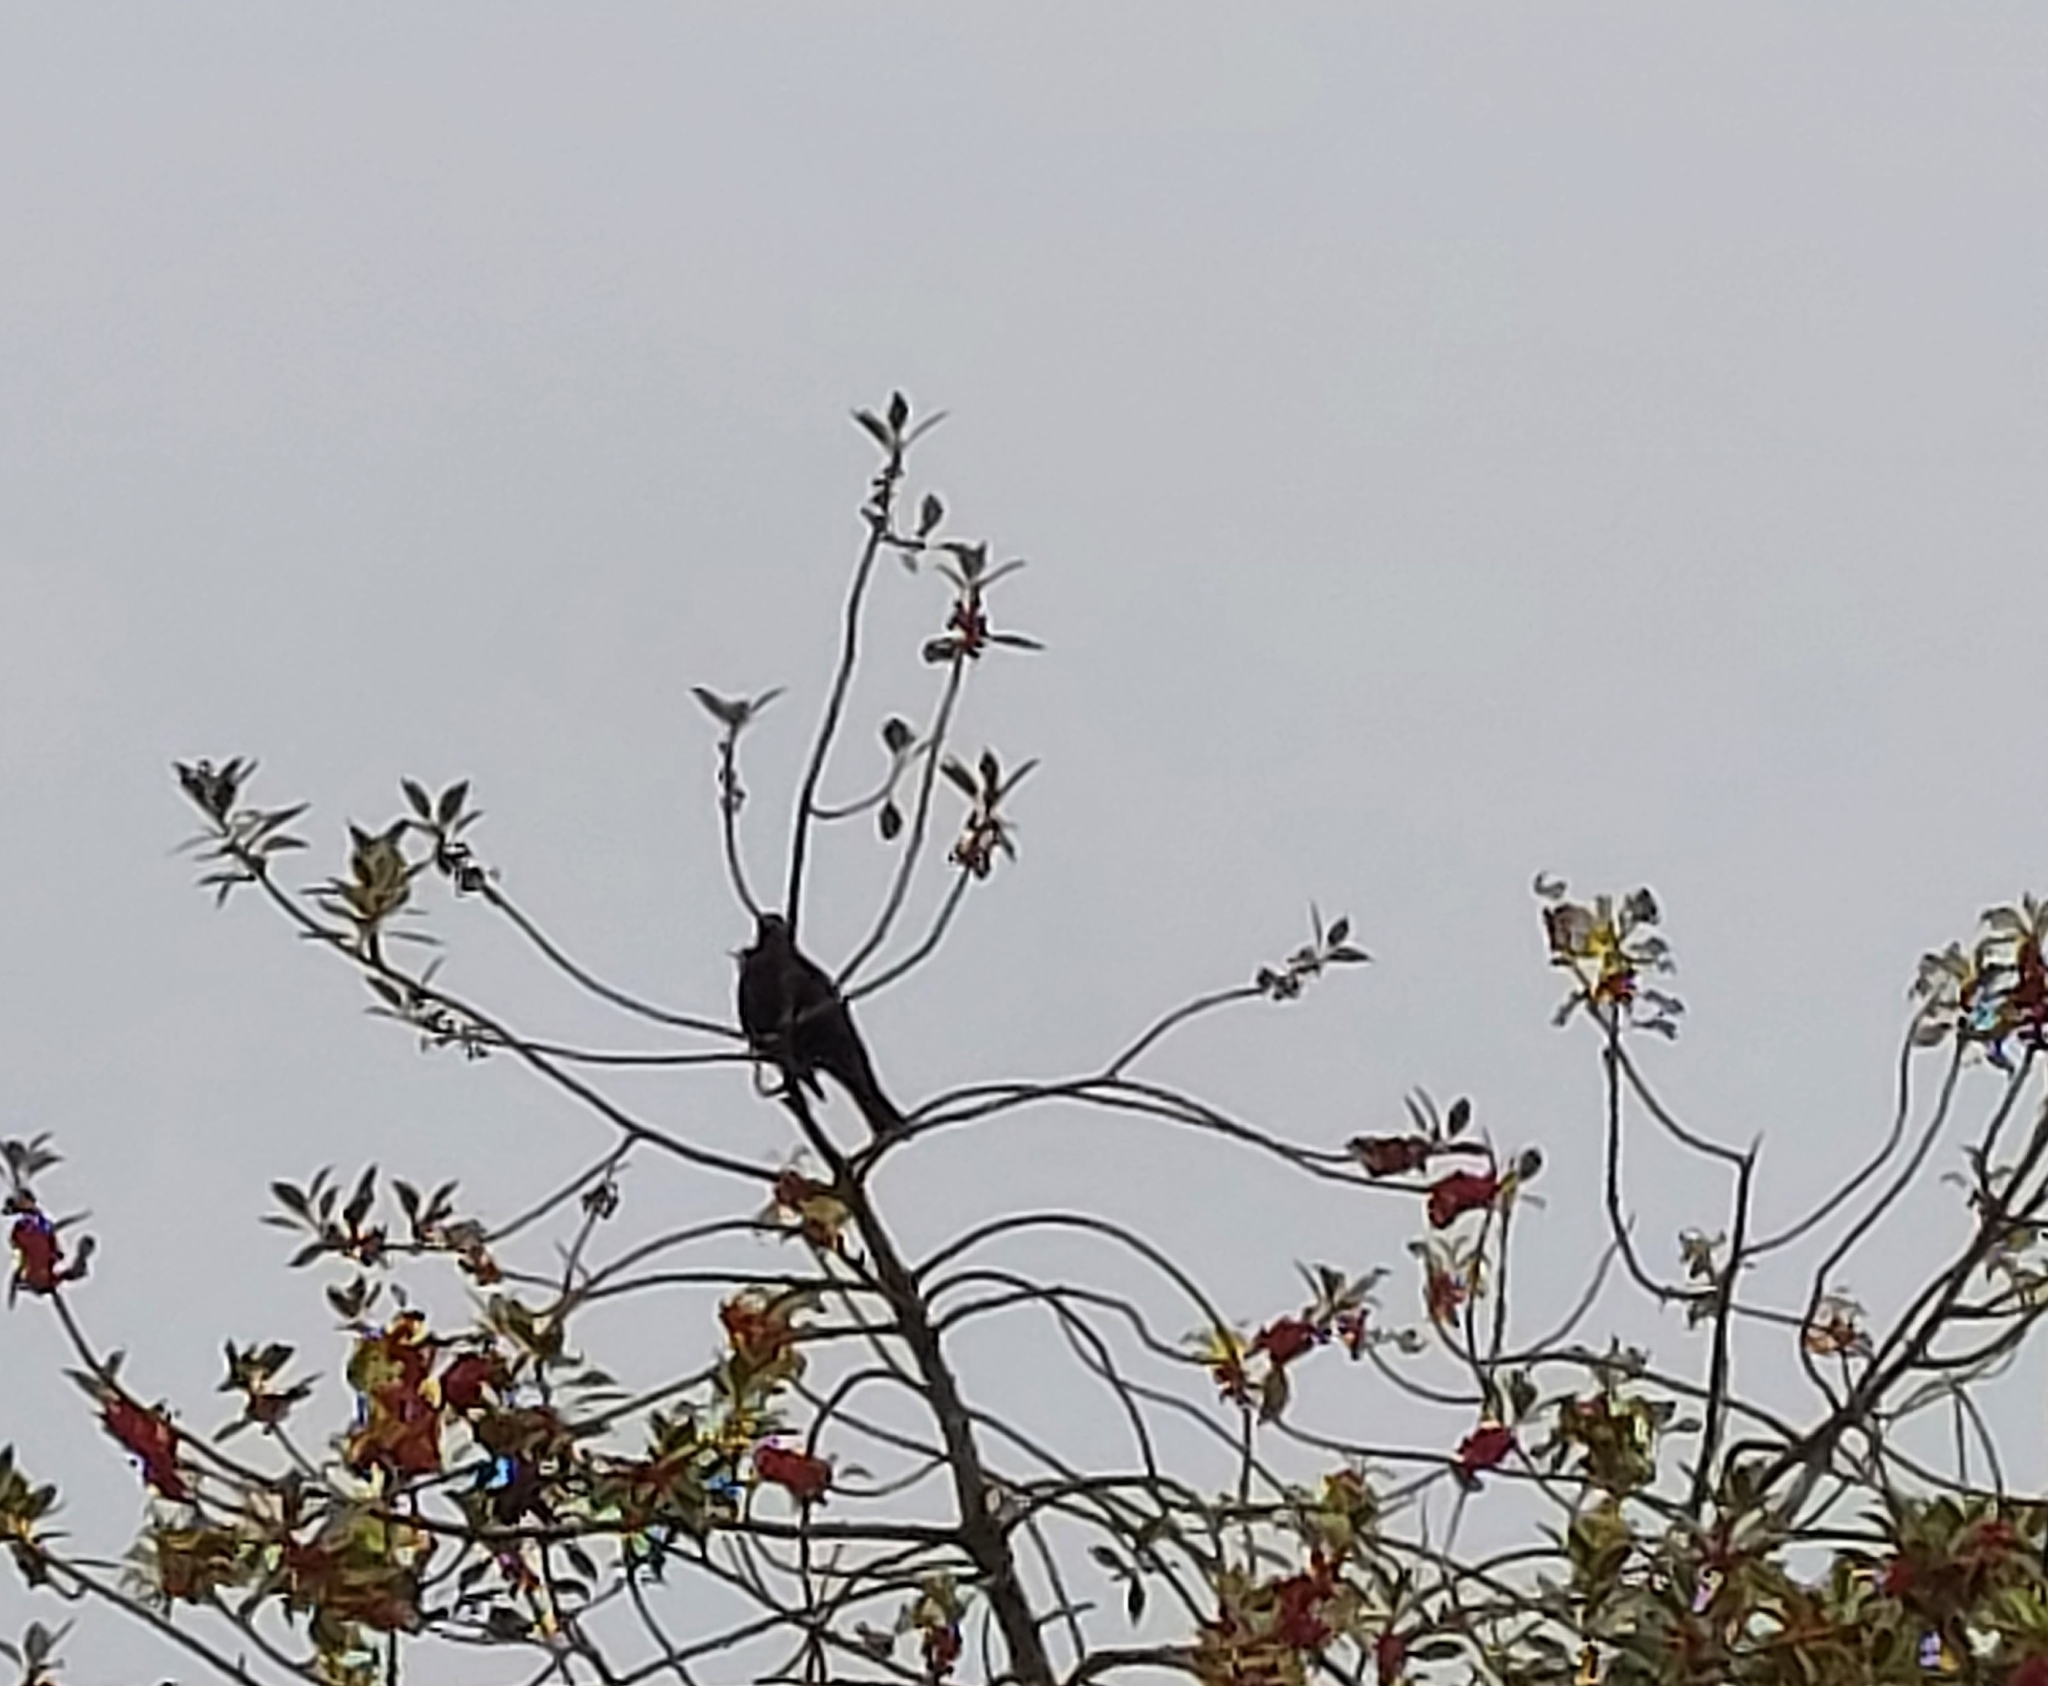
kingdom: Animalia
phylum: Chordata
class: Aves
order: Passeriformes
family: Turdidae
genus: Turdus
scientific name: Turdus merula
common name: Common blackbird
